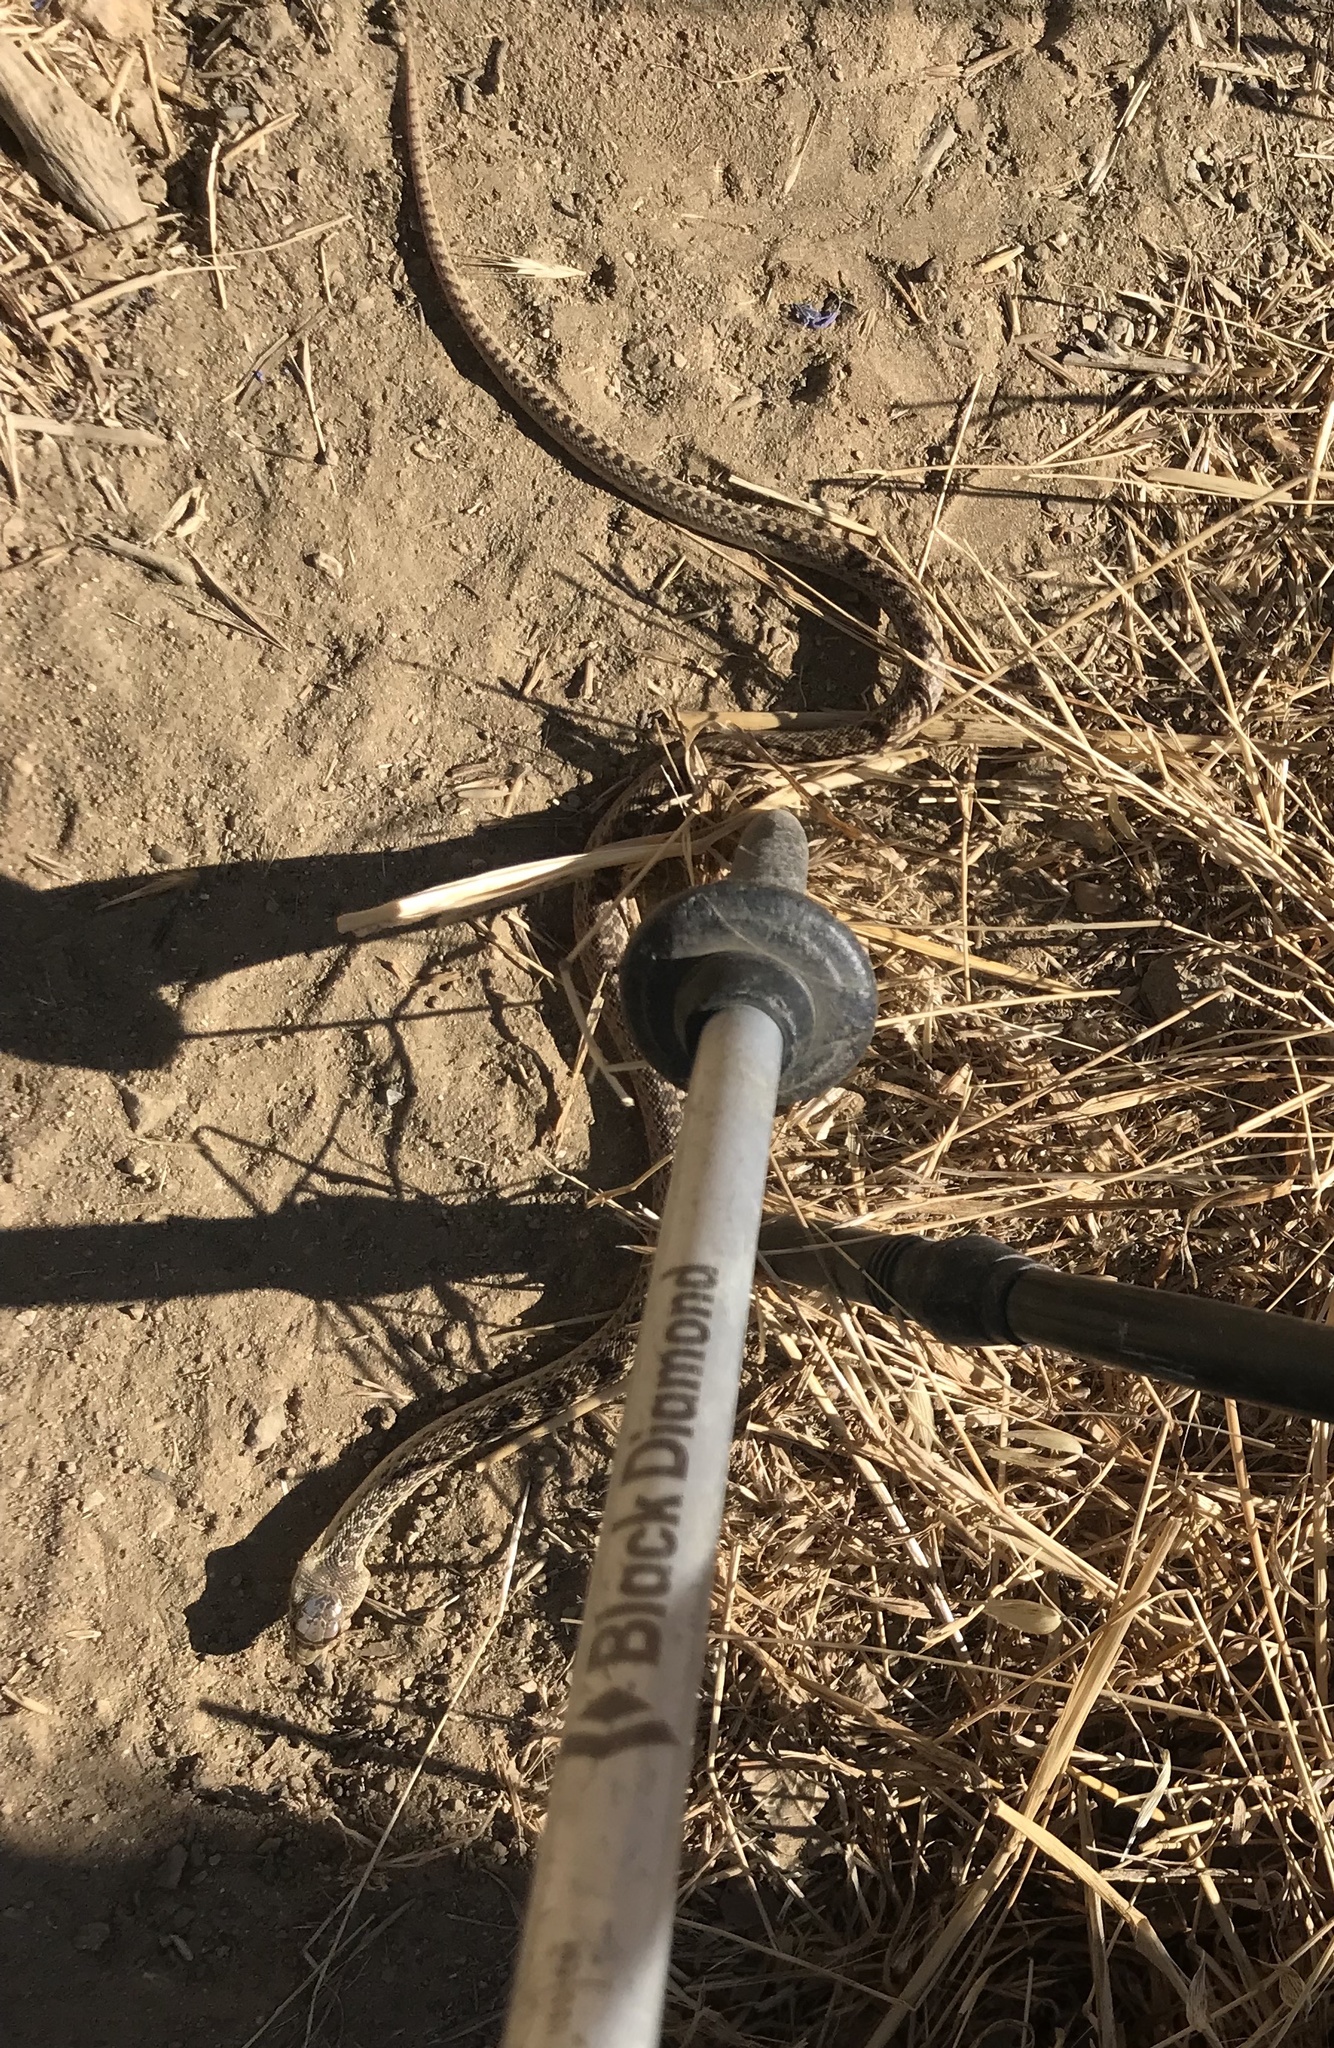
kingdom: Animalia
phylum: Chordata
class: Squamata
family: Colubridae
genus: Pituophis
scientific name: Pituophis catenifer
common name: Gopher snake
